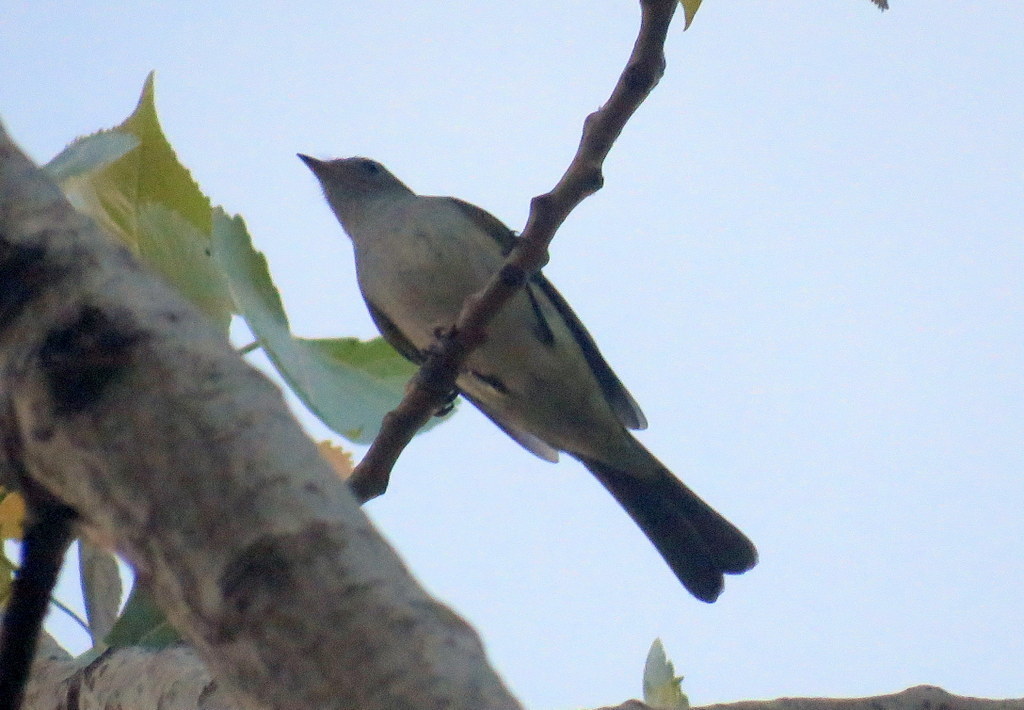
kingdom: Animalia
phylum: Chordata
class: Aves
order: Passeriformes
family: Tyrannidae
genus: Elaenia
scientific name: Elaenia parvirostris
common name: Small-billed elaenia
